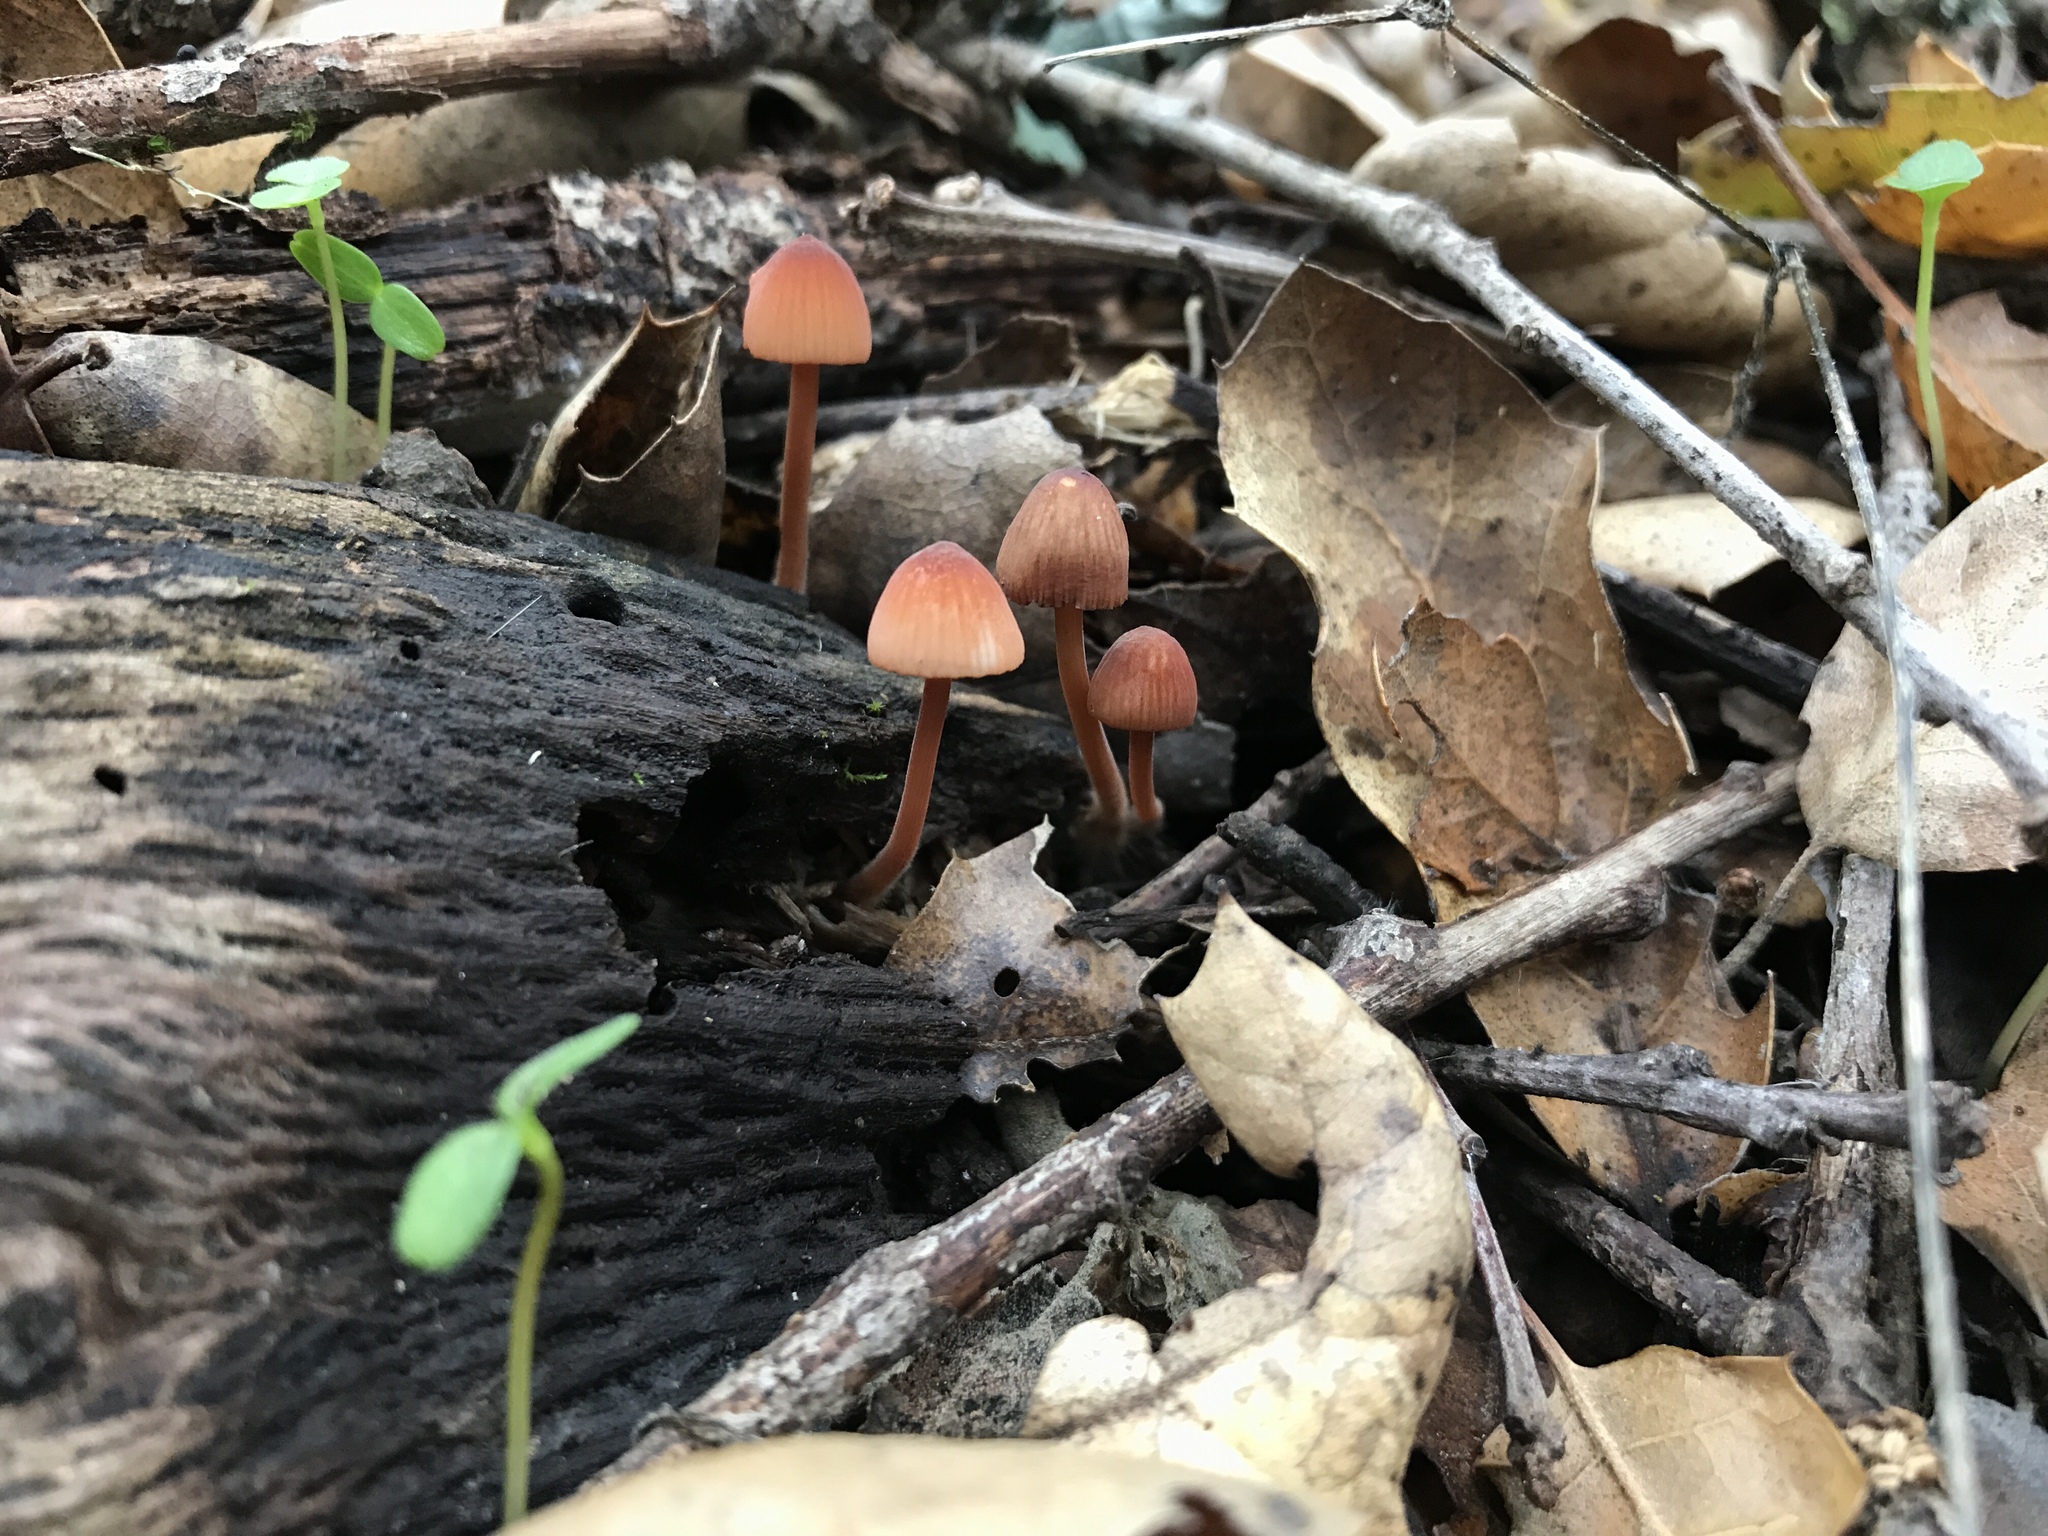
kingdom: Fungi
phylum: Basidiomycota
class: Agaricomycetes
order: Agaricales
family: Mycenaceae
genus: Mycena
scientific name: Mycena
